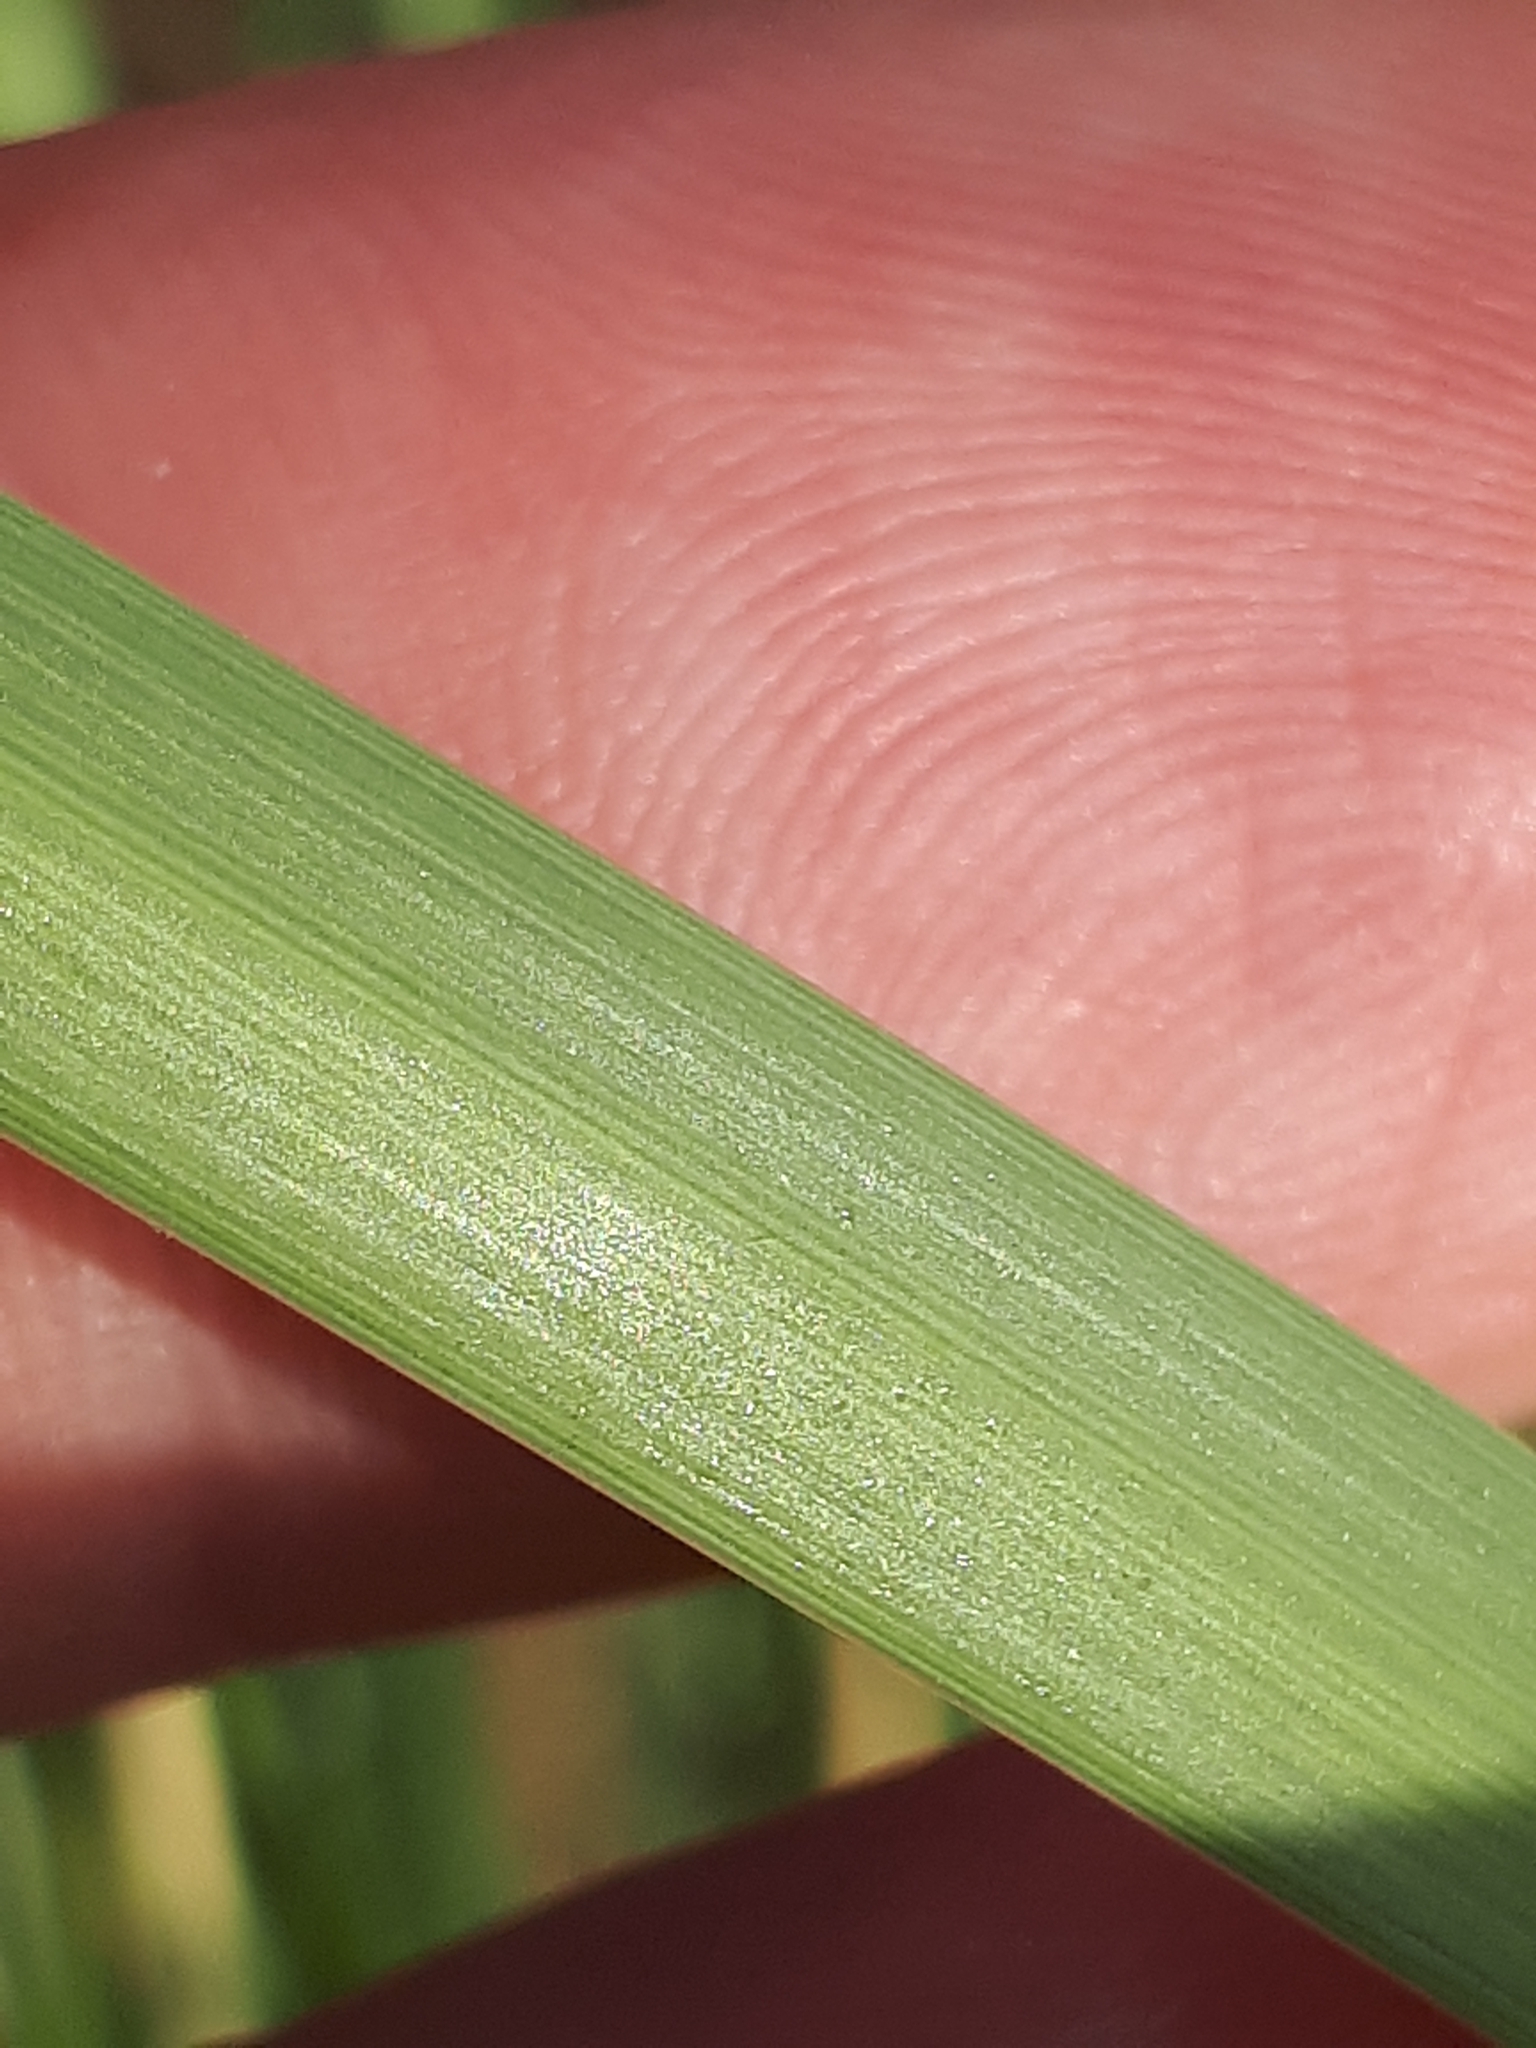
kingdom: Plantae
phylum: Tracheophyta
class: Liliopsida
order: Poales
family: Poaceae
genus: Calamagrostis
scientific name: Calamagrostis arenaria
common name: European beachgrass
